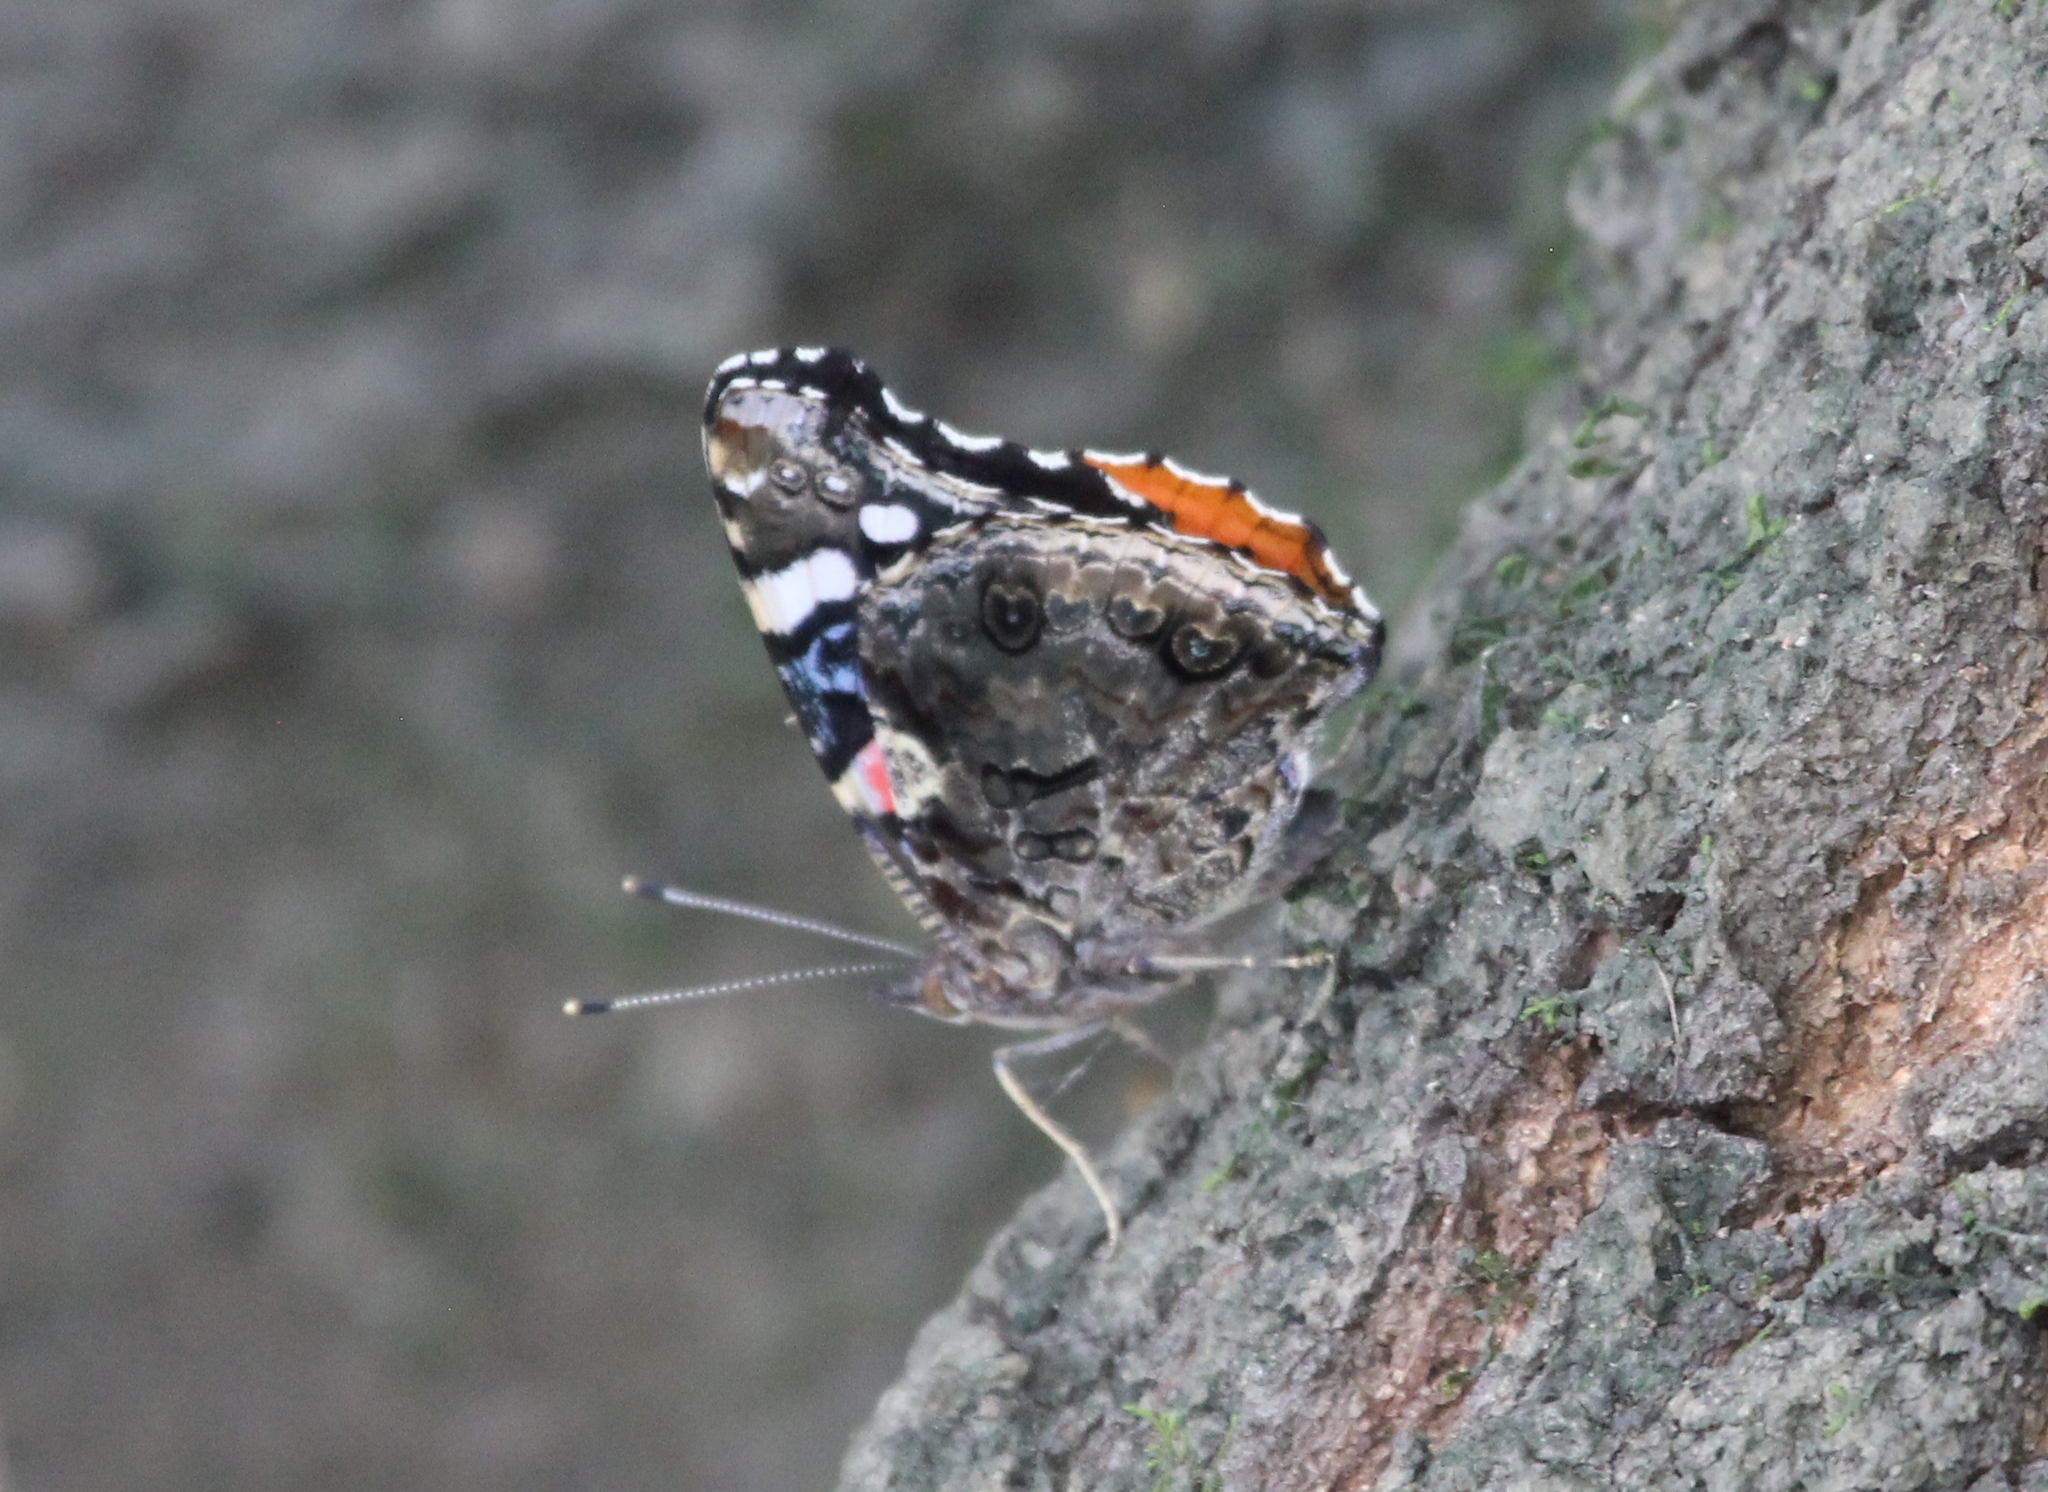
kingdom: Animalia
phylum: Arthropoda
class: Insecta
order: Lepidoptera
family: Nymphalidae
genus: Vanessa
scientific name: Vanessa atalanta
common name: Red admiral
